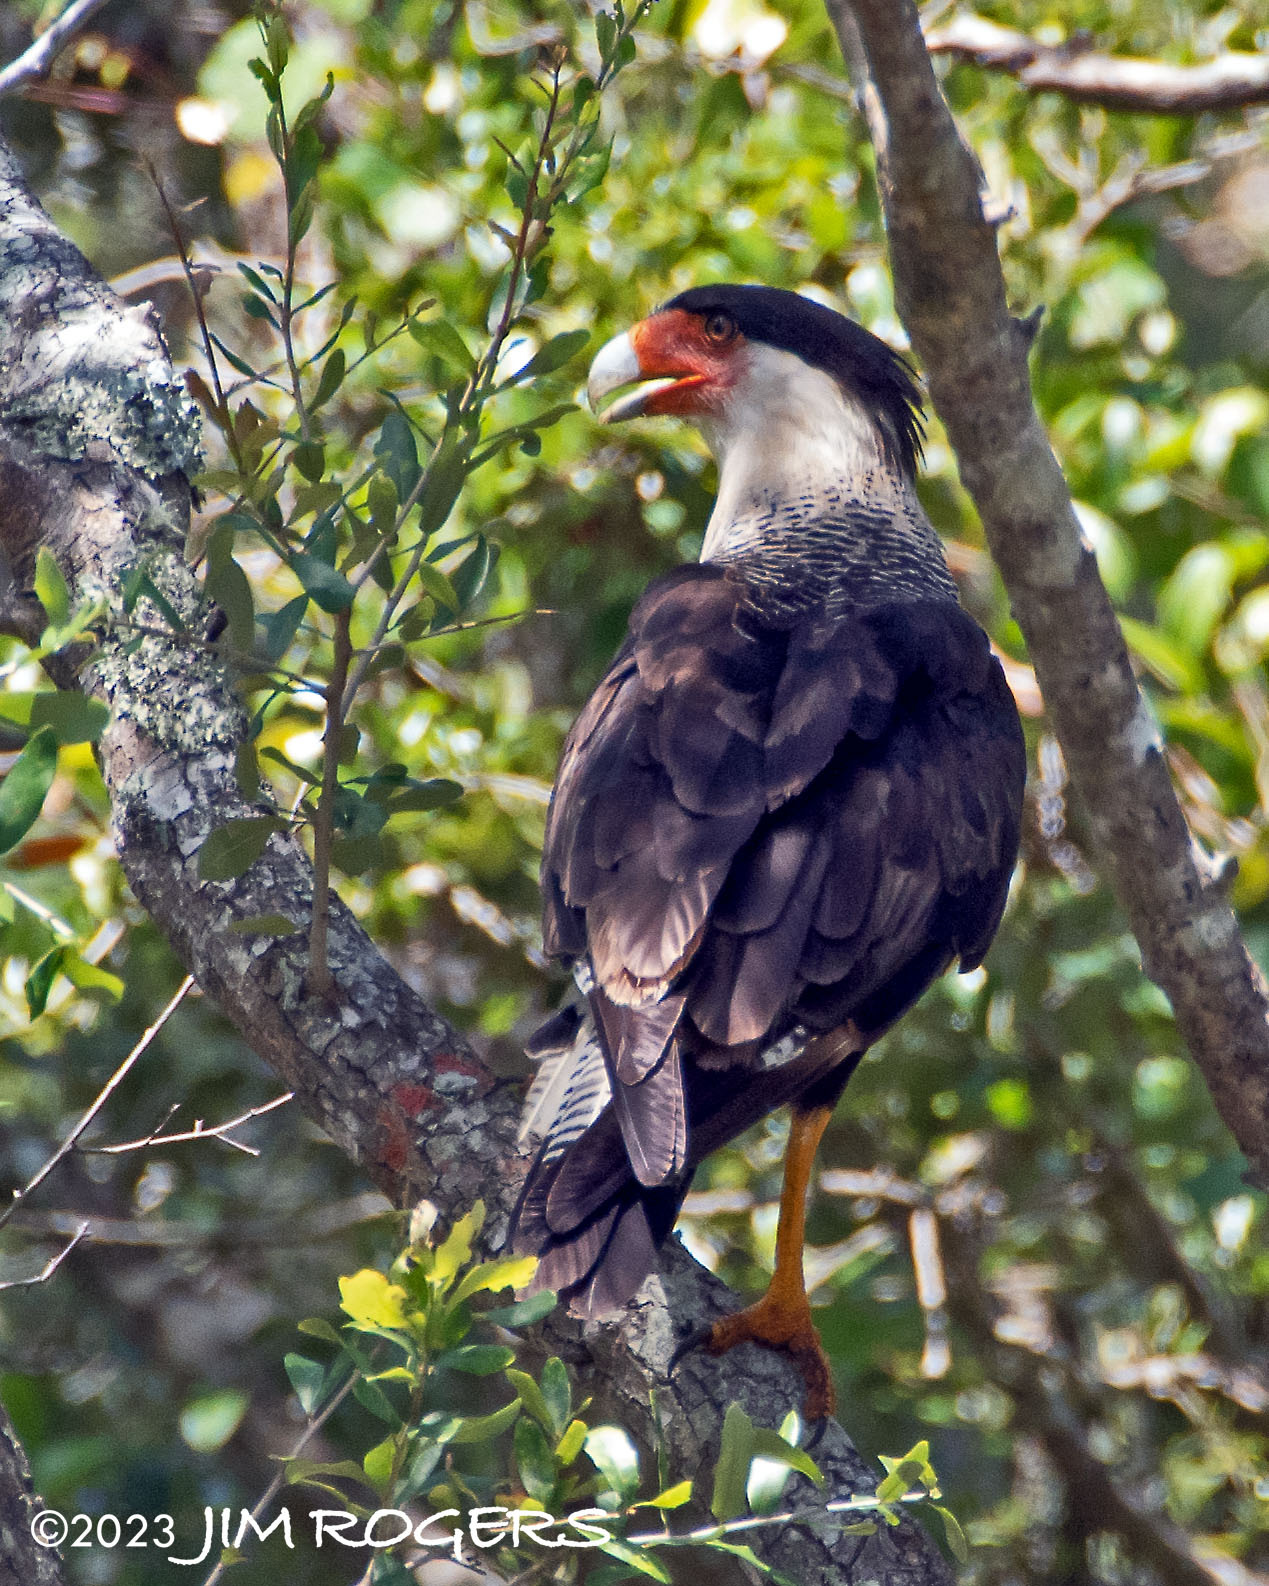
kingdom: Animalia
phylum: Chordata
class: Aves
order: Falconiformes
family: Falconidae
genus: Caracara
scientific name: Caracara plancus
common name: Southern caracara
